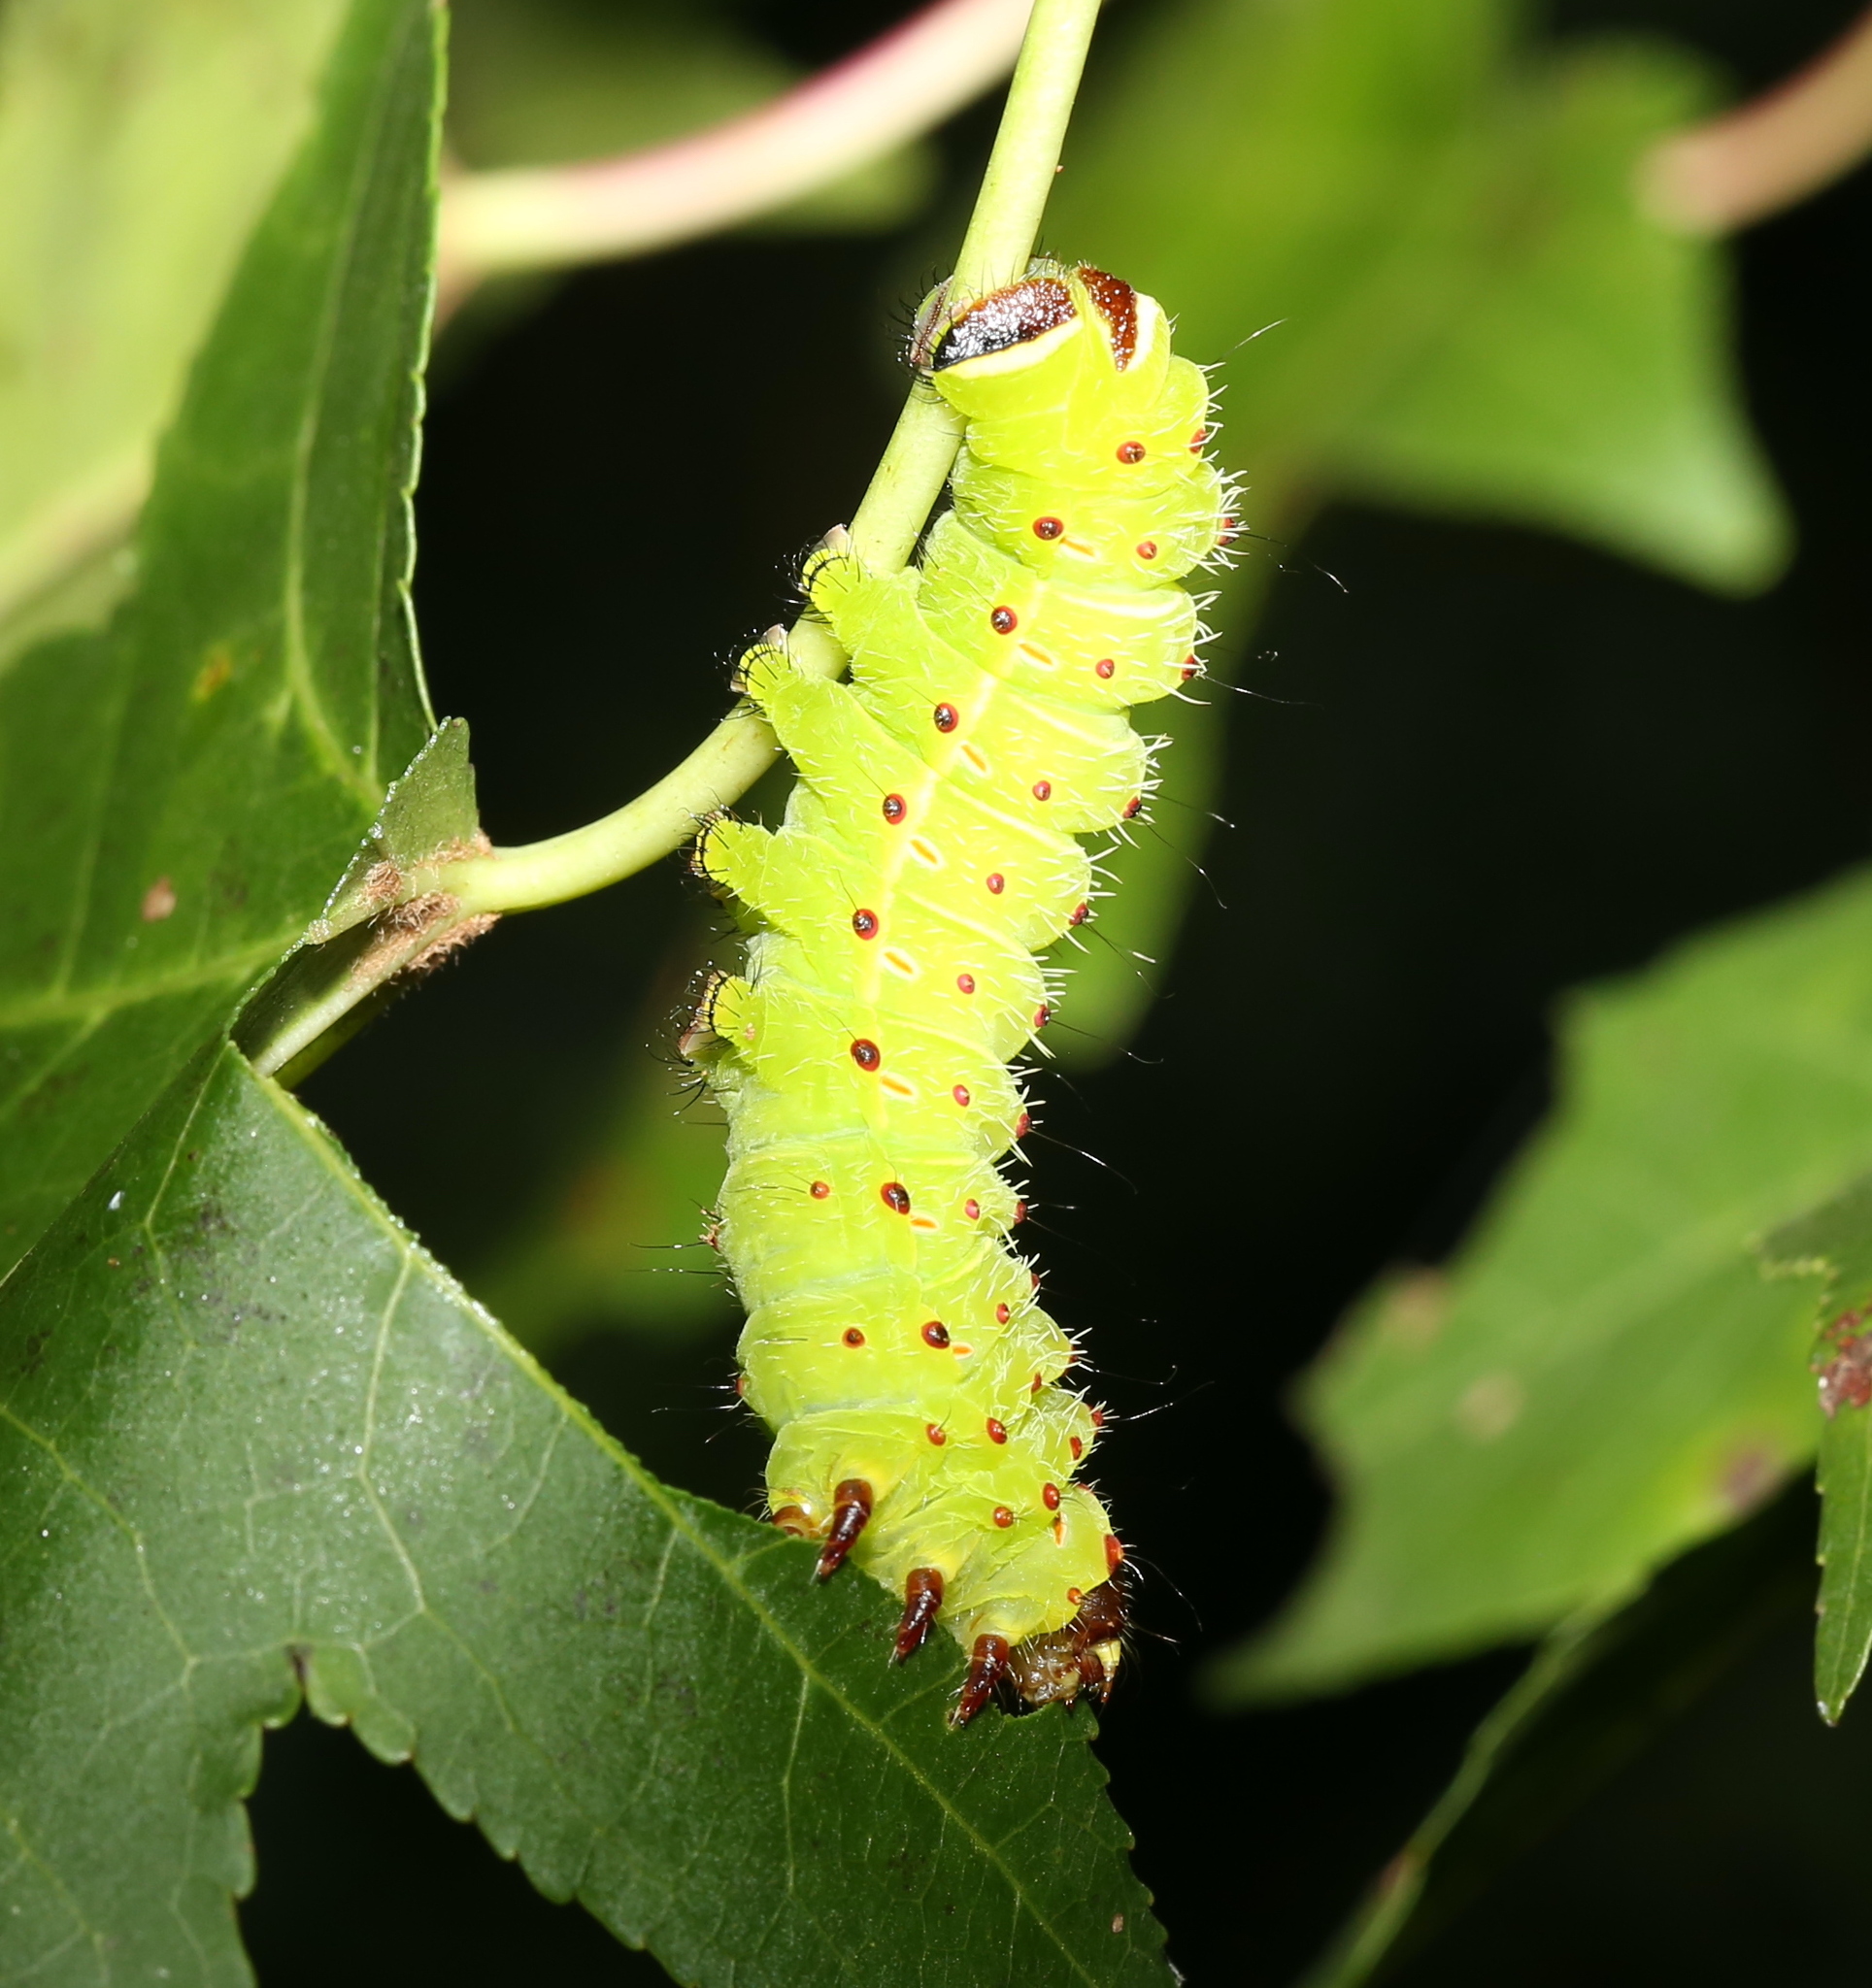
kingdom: Animalia
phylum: Arthropoda
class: Insecta
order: Lepidoptera
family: Saturniidae
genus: Actias
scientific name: Actias luna
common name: Luna moth
